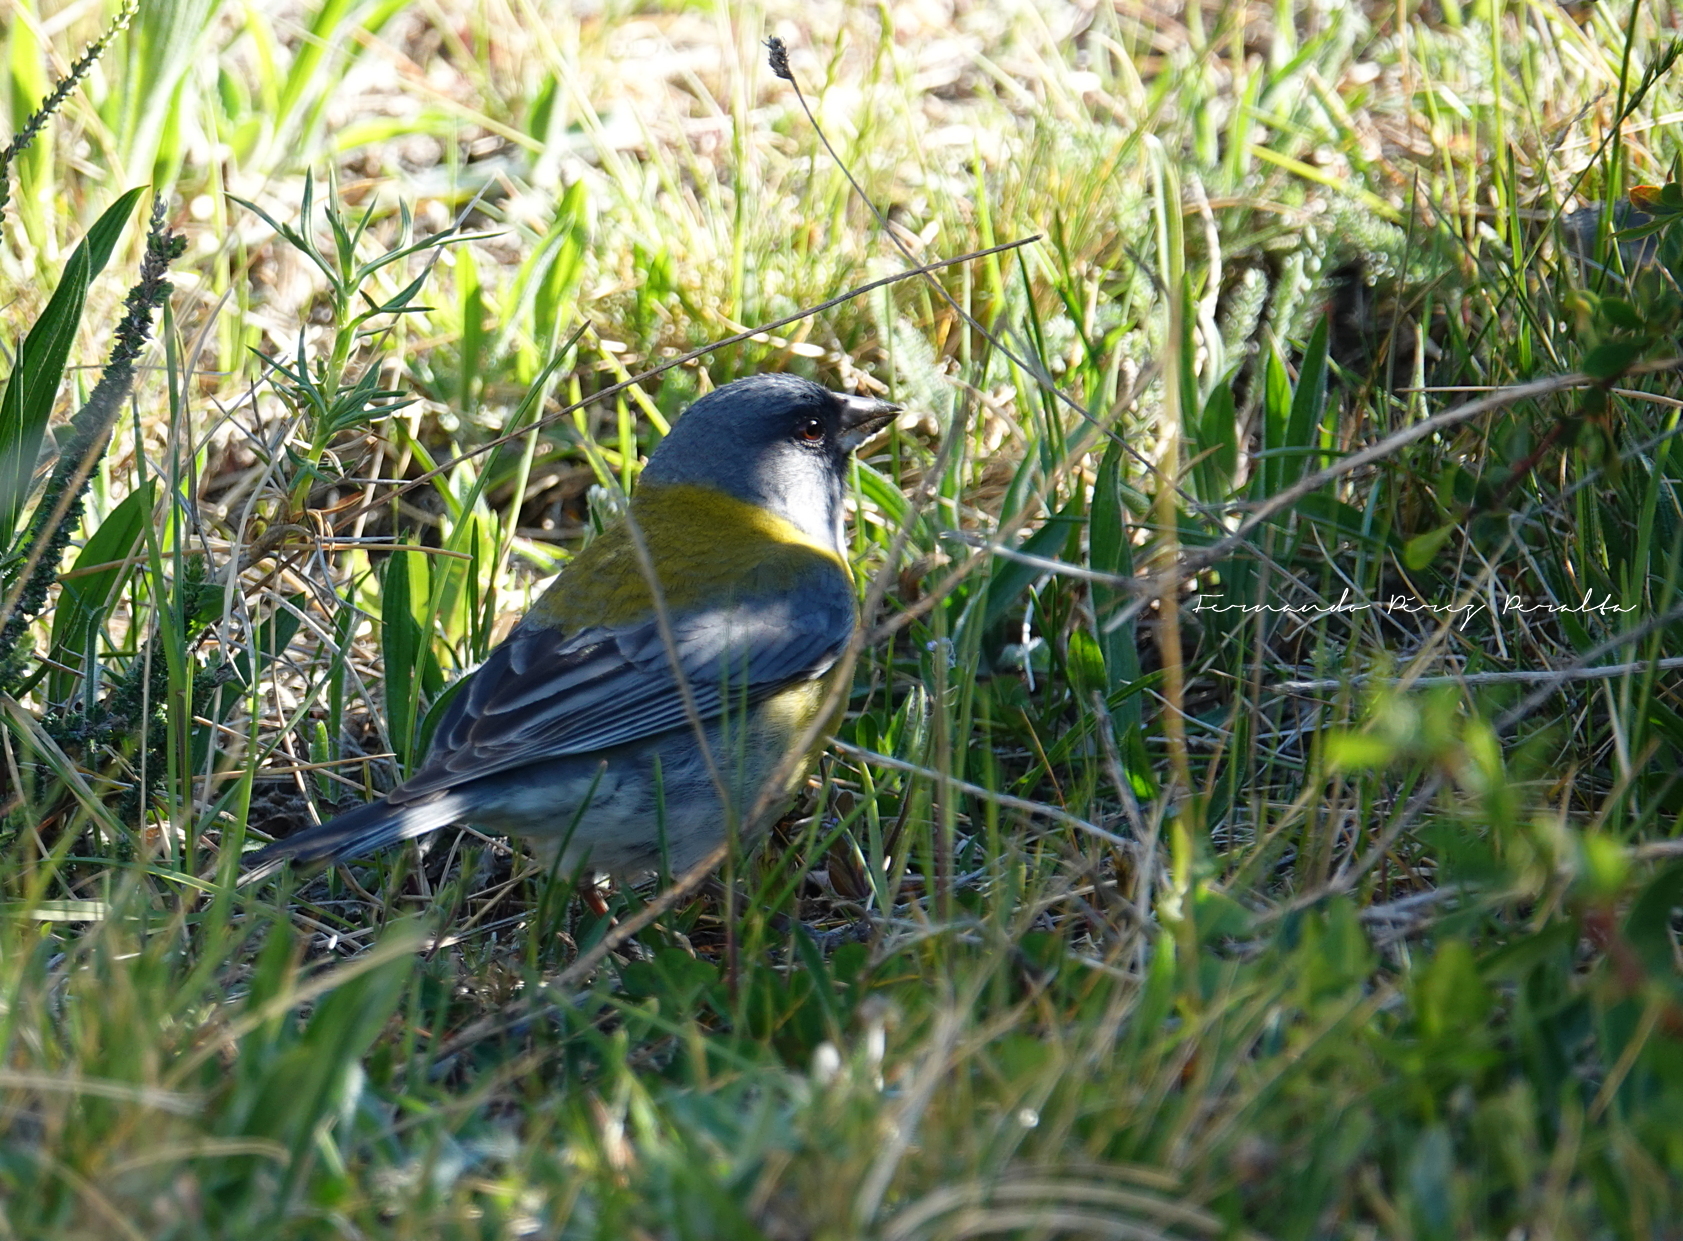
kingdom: Animalia
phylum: Chordata
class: Aves
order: Passeriformes
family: Thraupidae
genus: Phrygilus
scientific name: Phrygilus gayi
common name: Grey-hooded sierra finch
